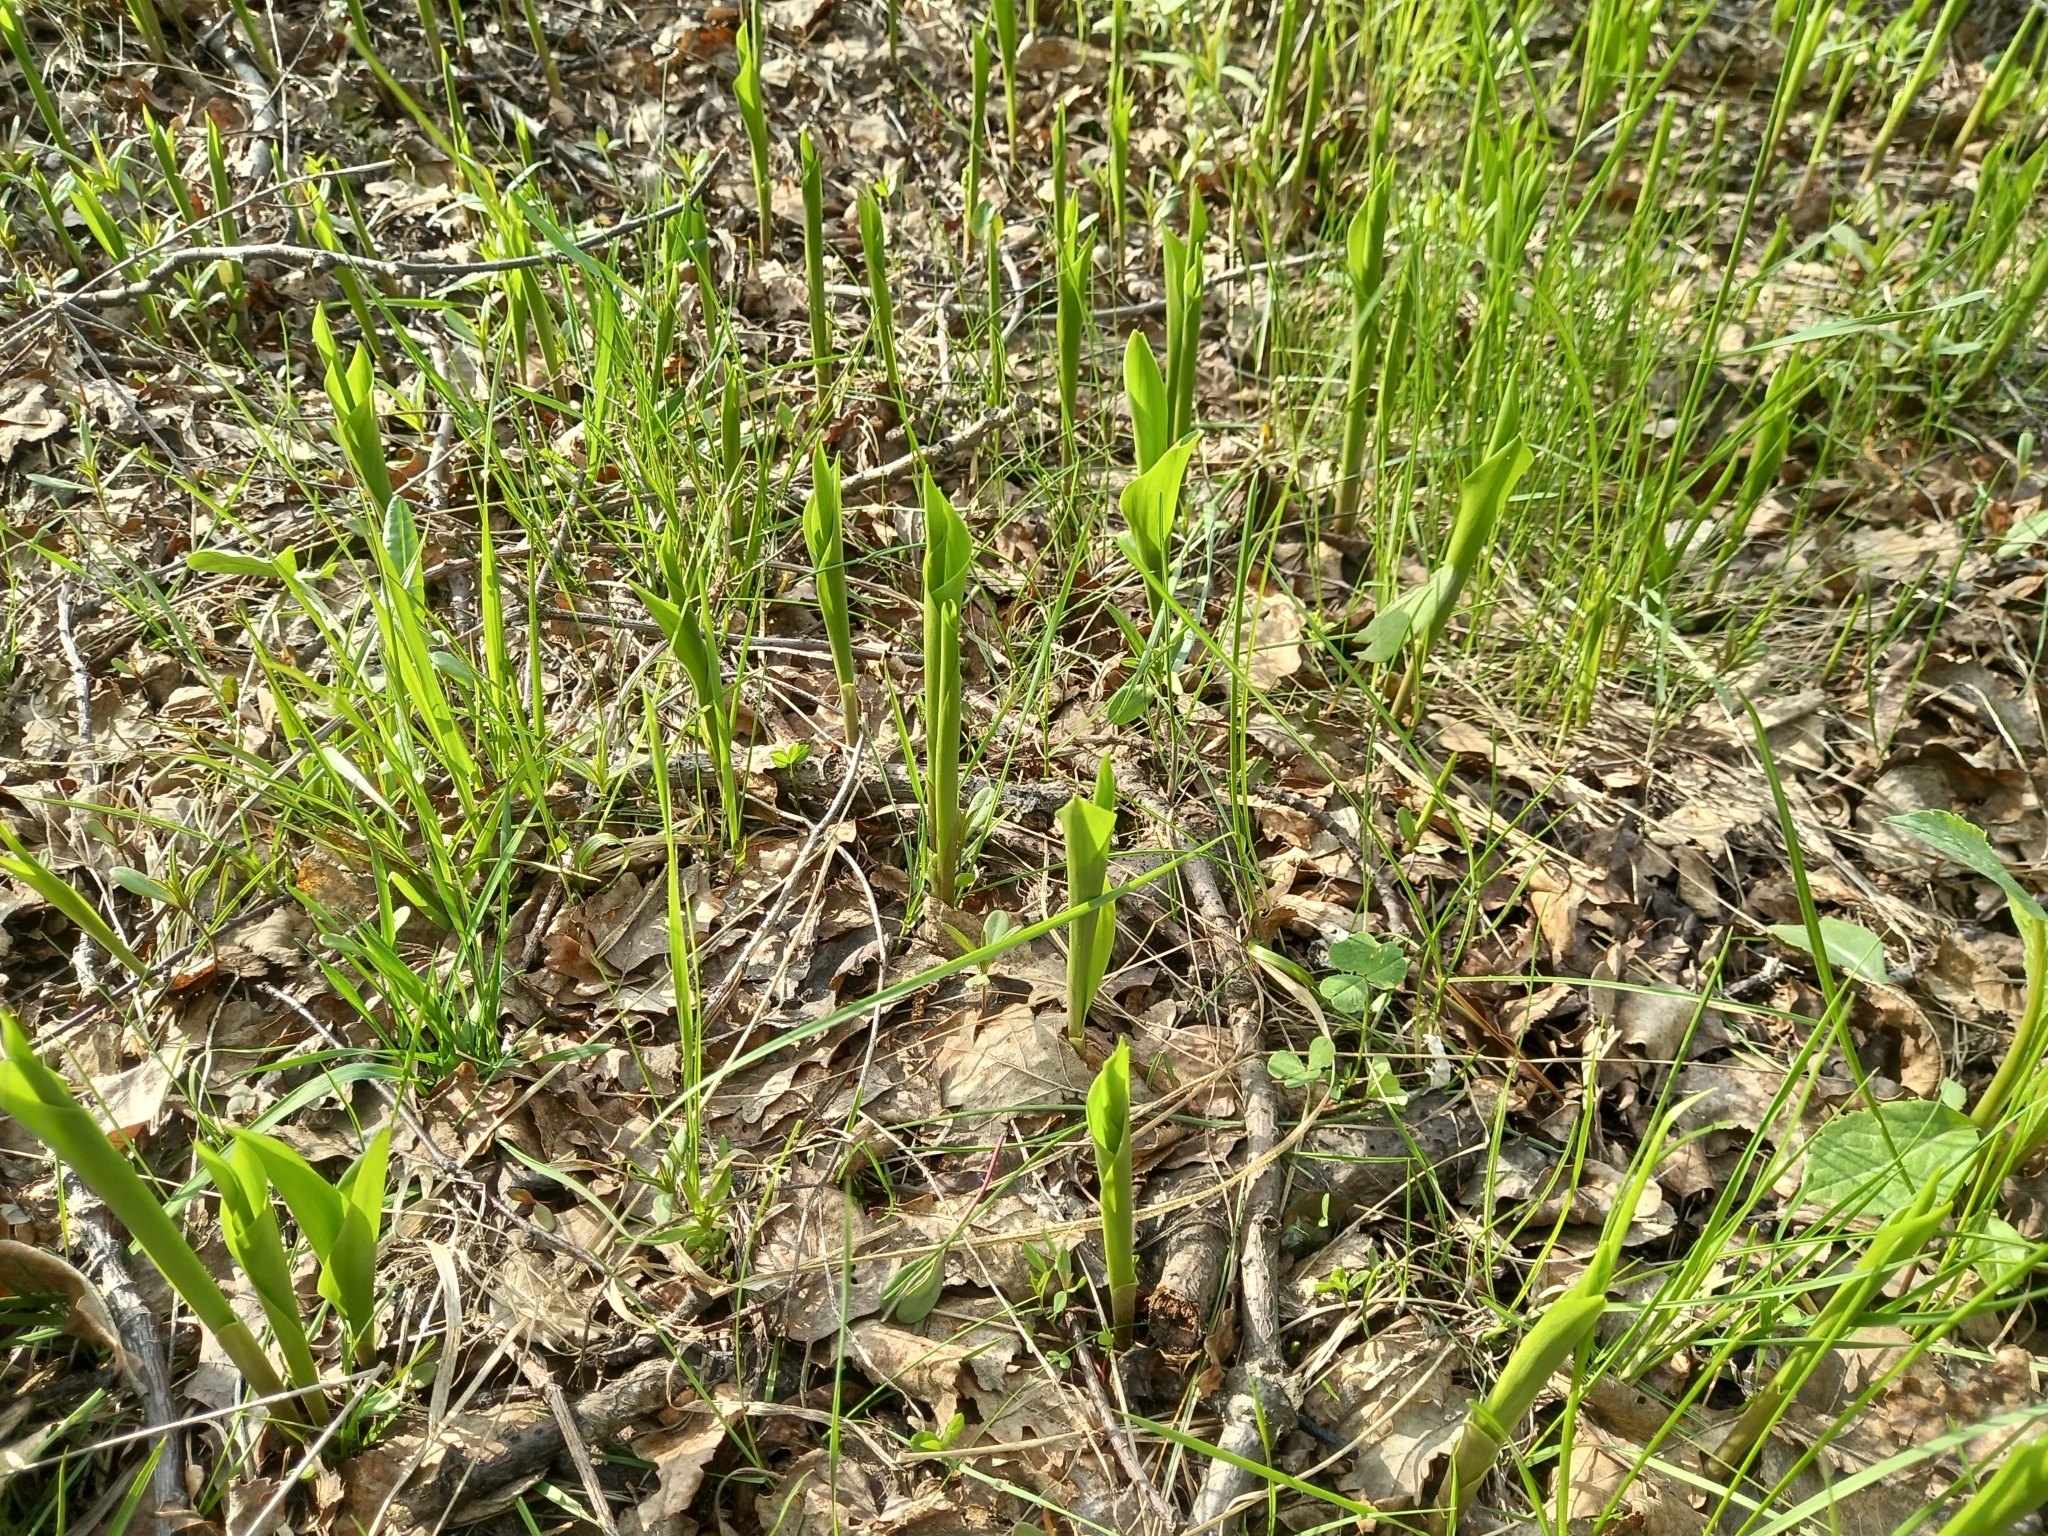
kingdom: Plantae
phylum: Tracheophyta
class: Liliopsida
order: Asparagales
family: Asparagaceae
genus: Convallaria
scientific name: Convallaria majalis
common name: Lily-of-the-valley
